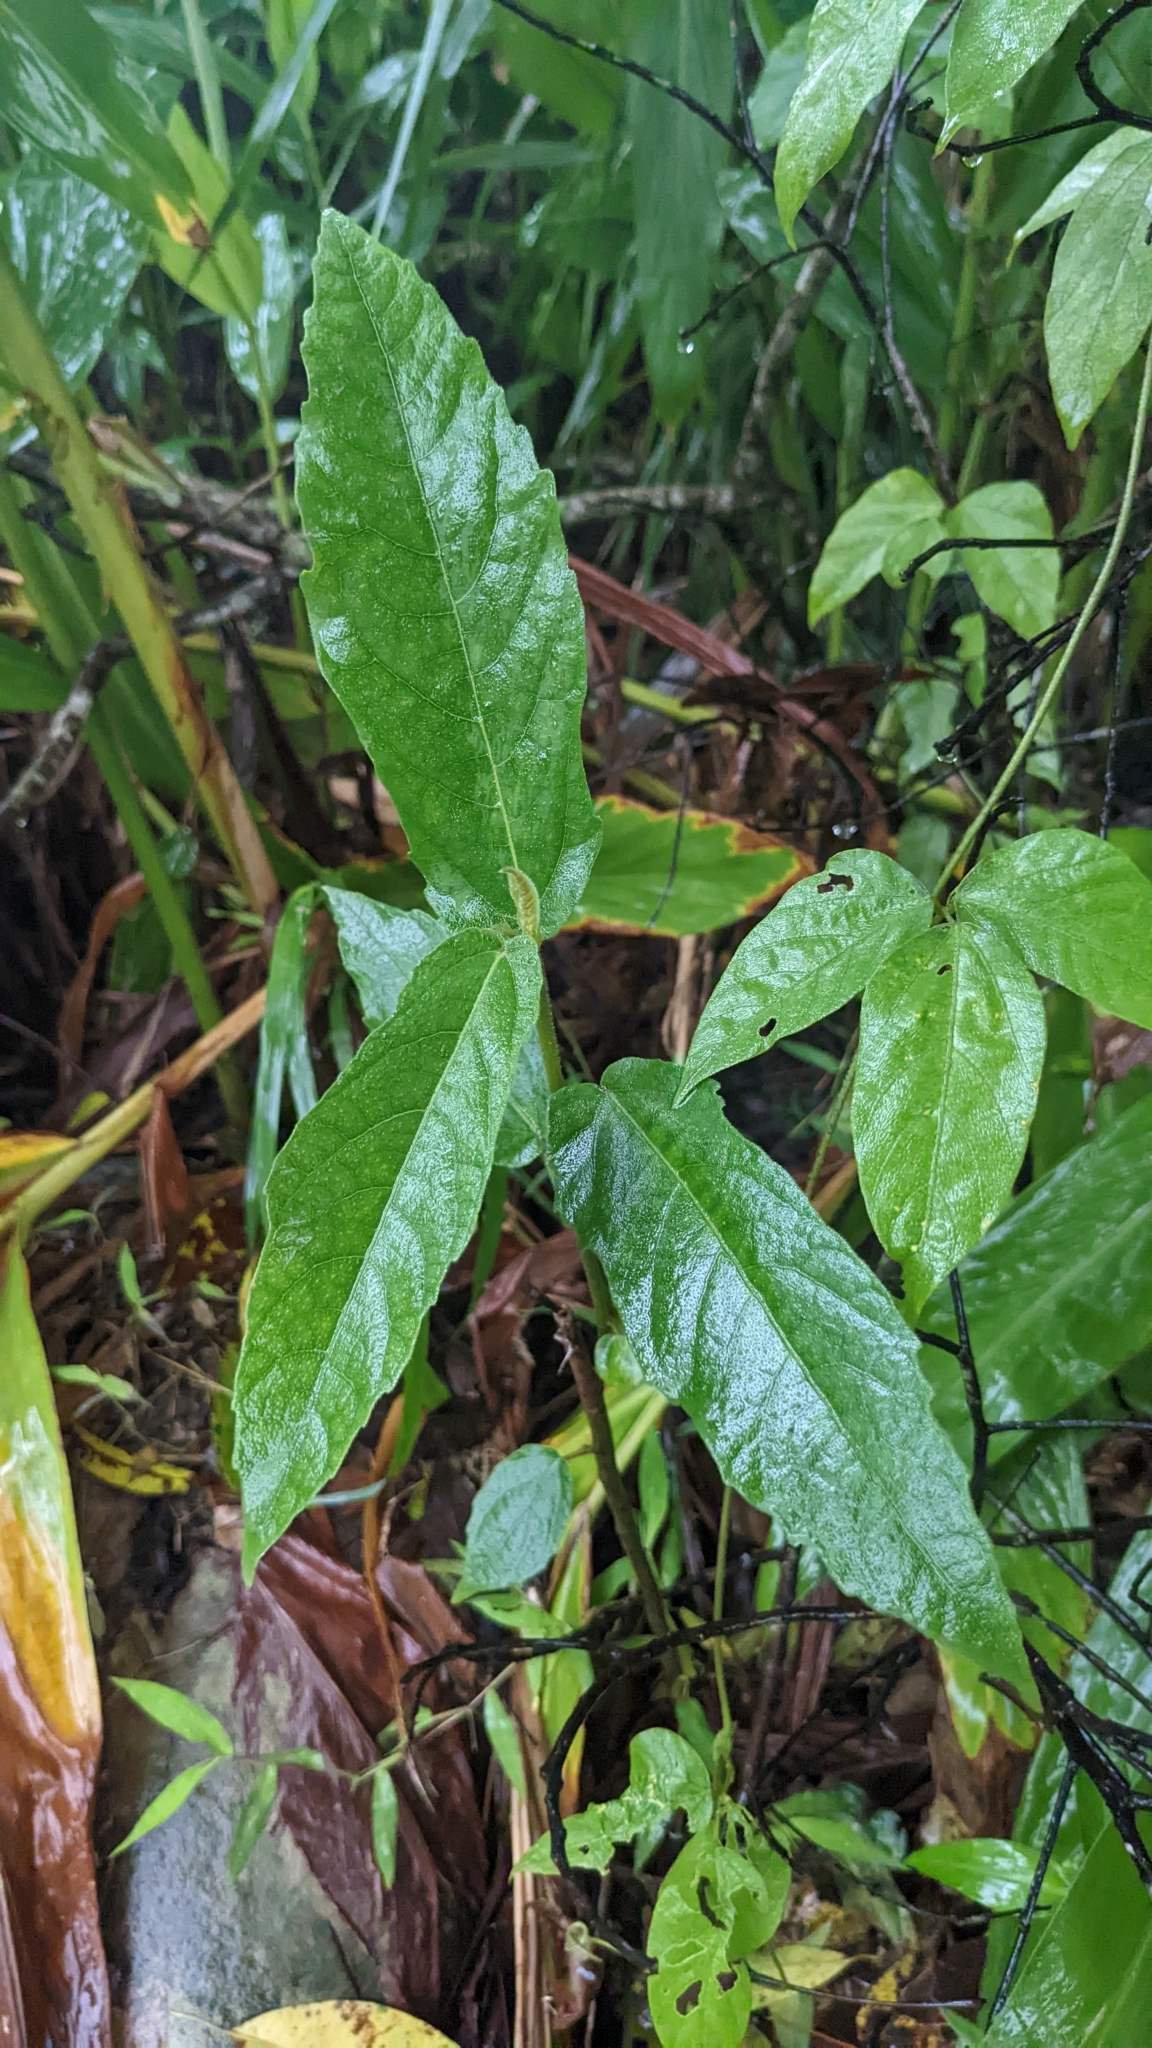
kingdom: Plantae
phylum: Tracheophyta
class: Magnoliopsida
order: Rosales
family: Moraceae
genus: Ficus
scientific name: Ficus erecta
